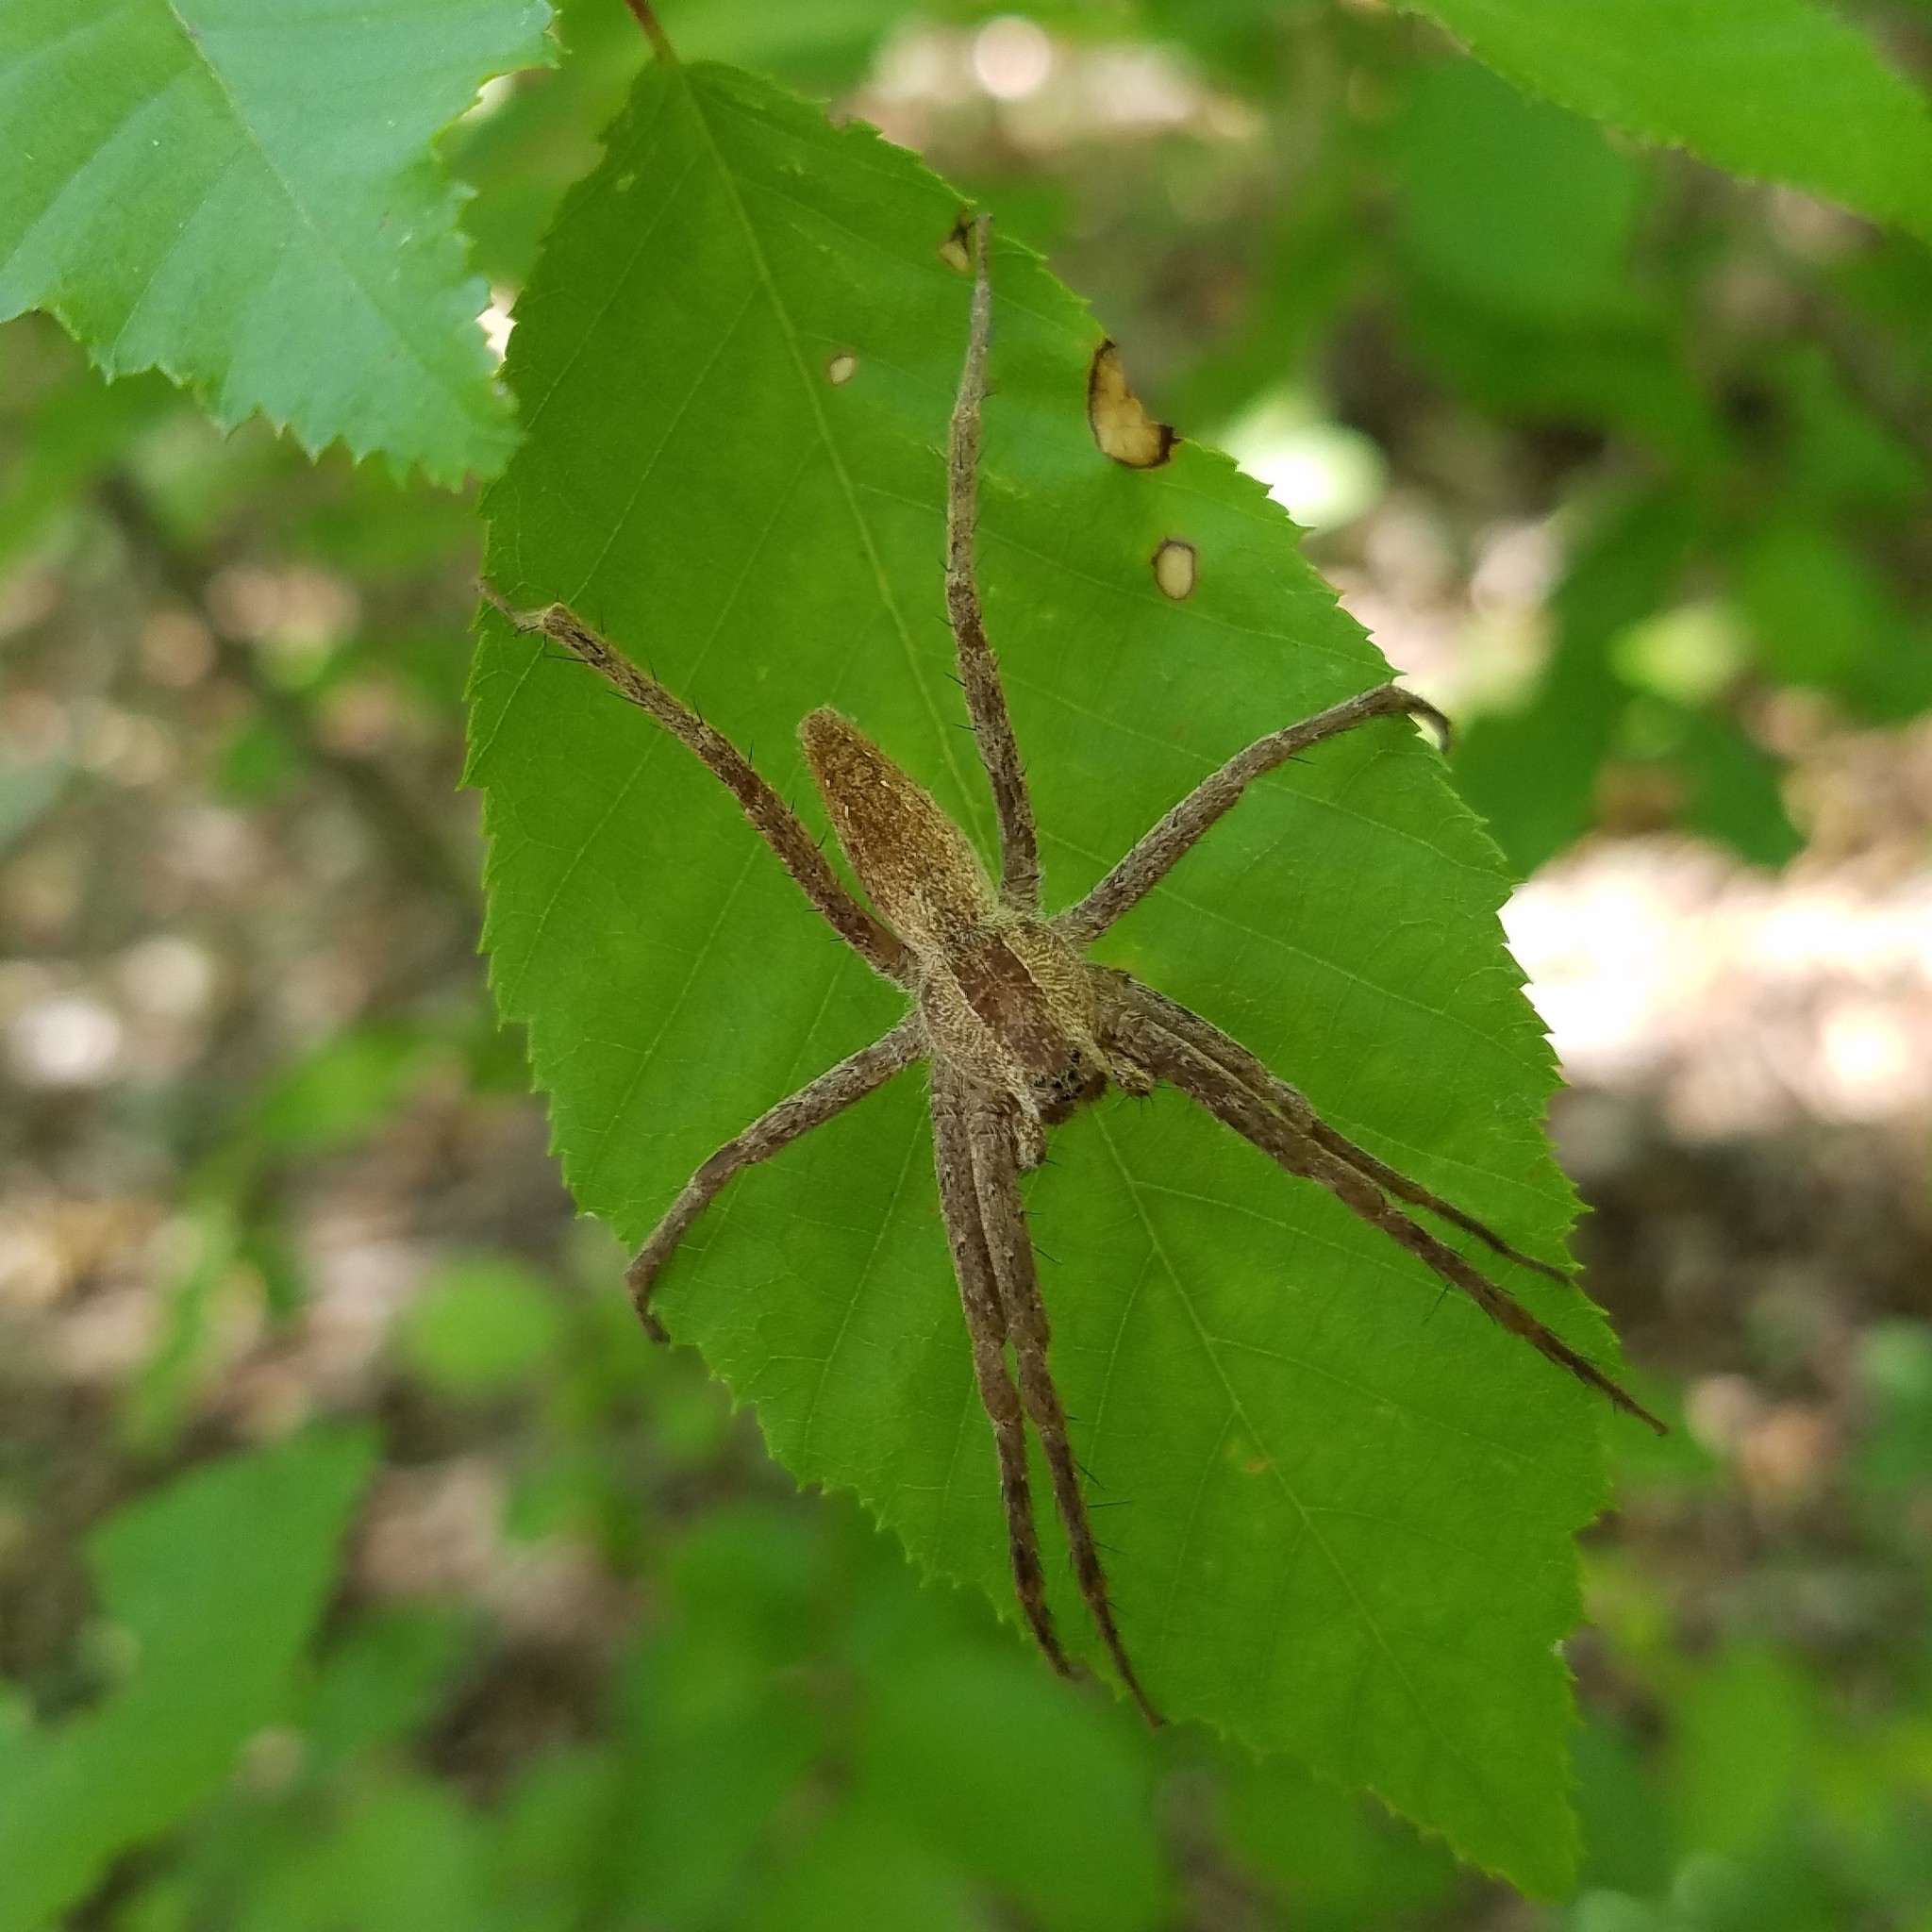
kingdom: Animalia
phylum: Arthropoda
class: Arachnida
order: Araneae
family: Pisauridae
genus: Pisaurina
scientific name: Pisaurina mira
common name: American nursery web spider
